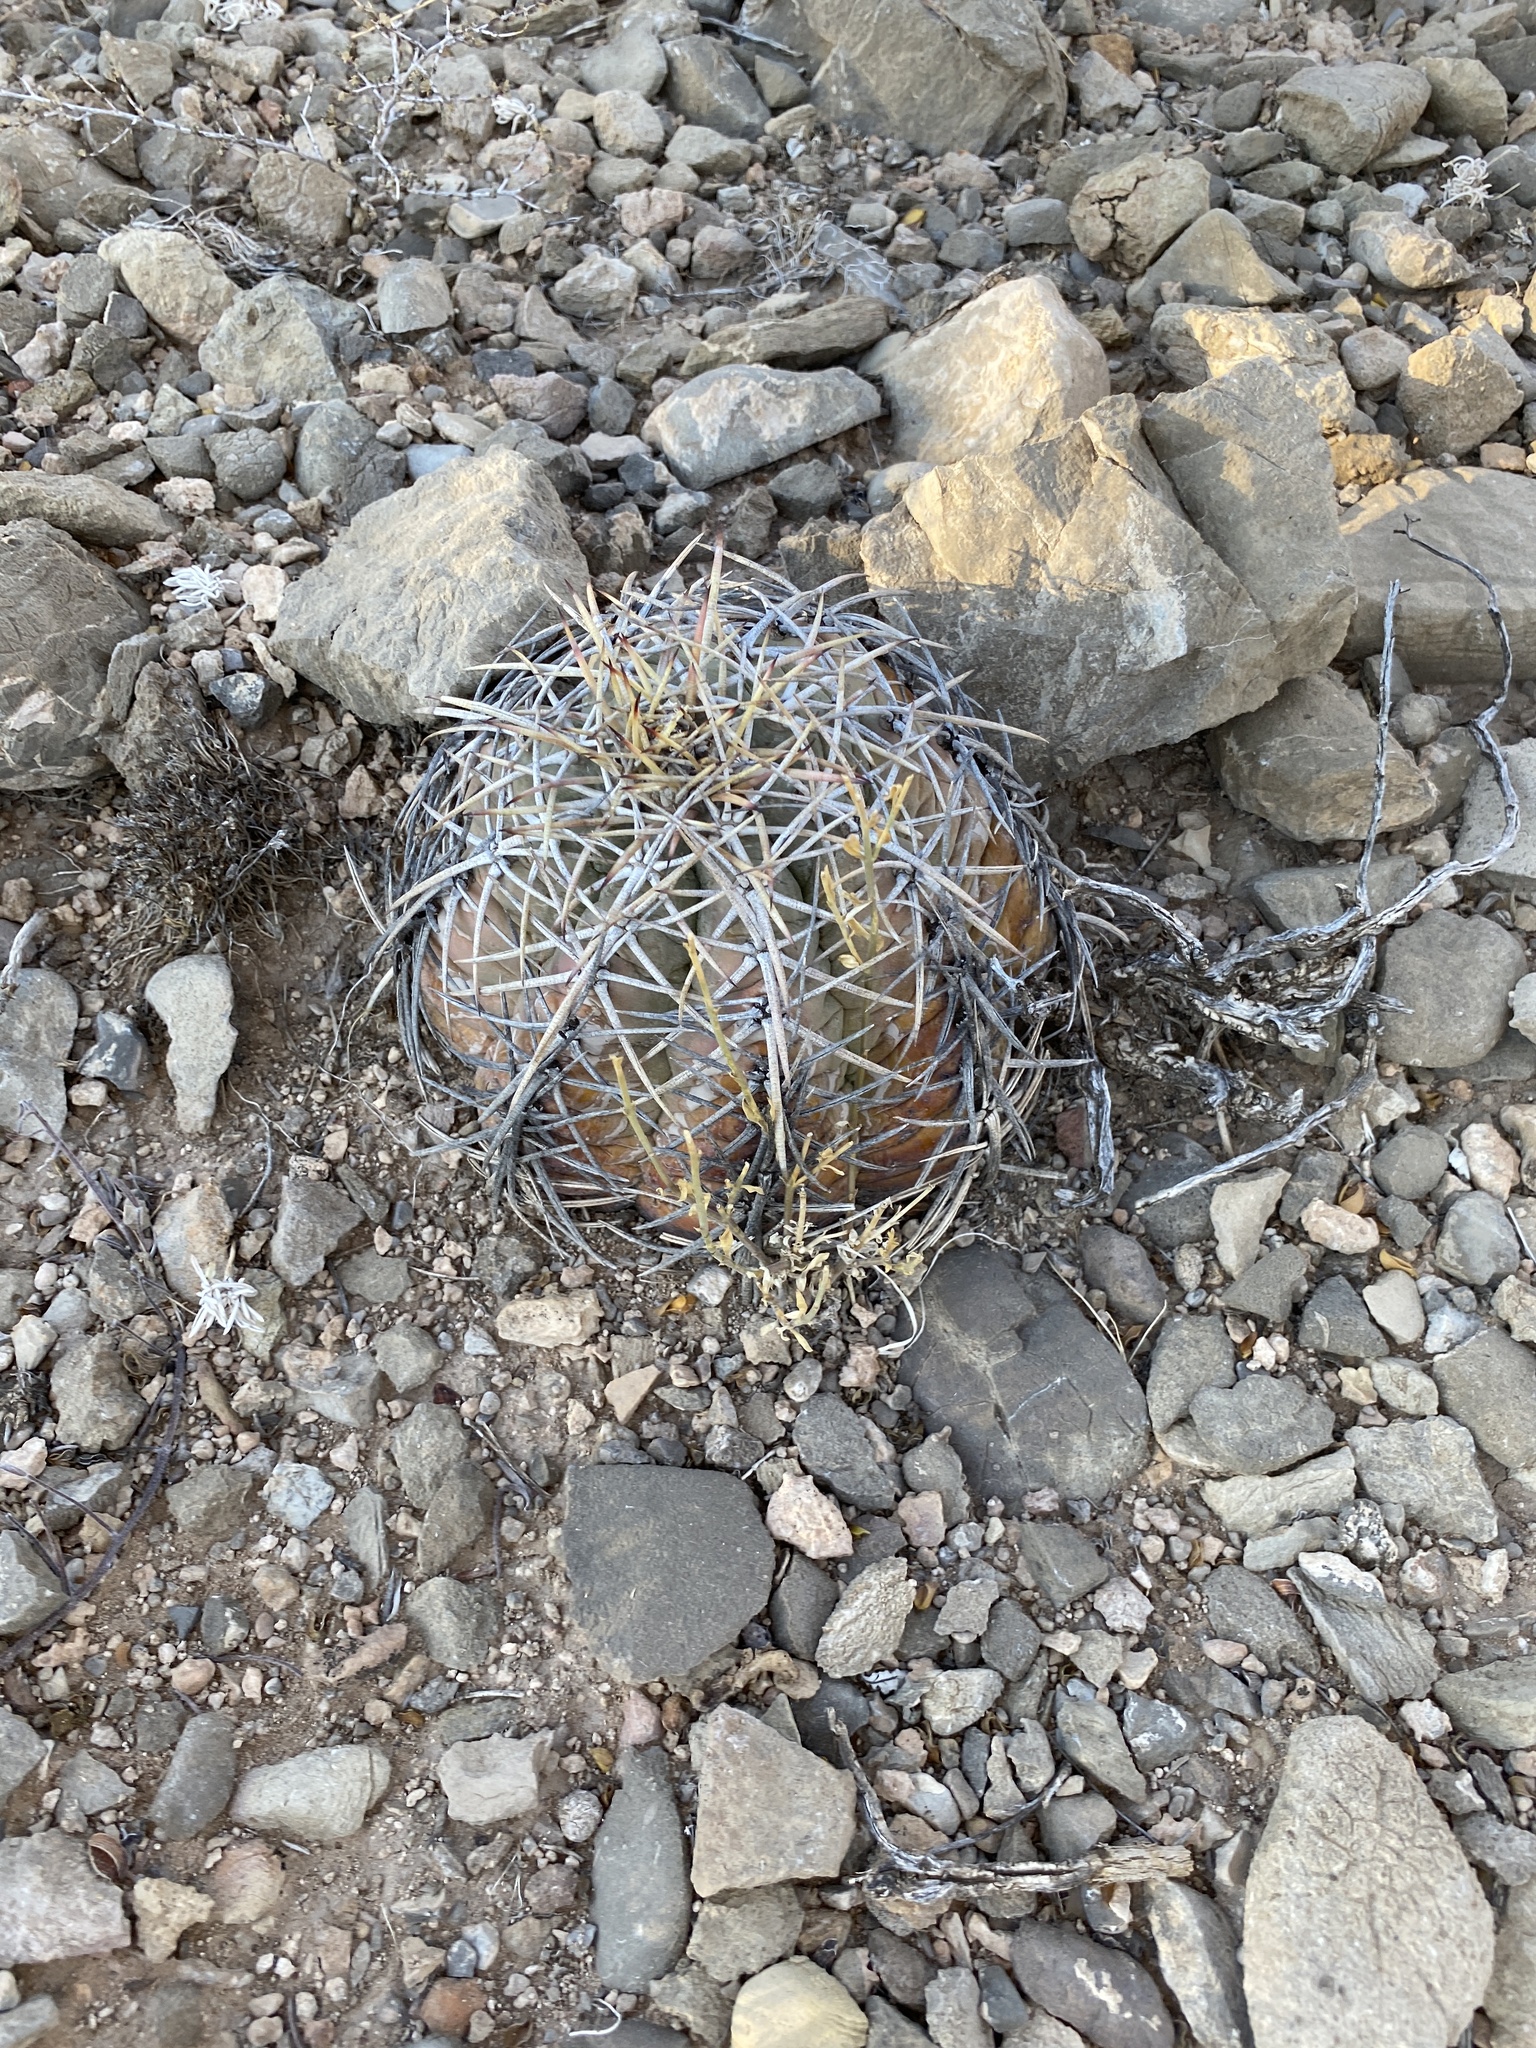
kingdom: Plantae
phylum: Tracheophyta
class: Magnoliopsida
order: Caryophyllales
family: Cactaceae
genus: Echinocactus
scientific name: Echinocactus horizonthalonius
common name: Devilshead
